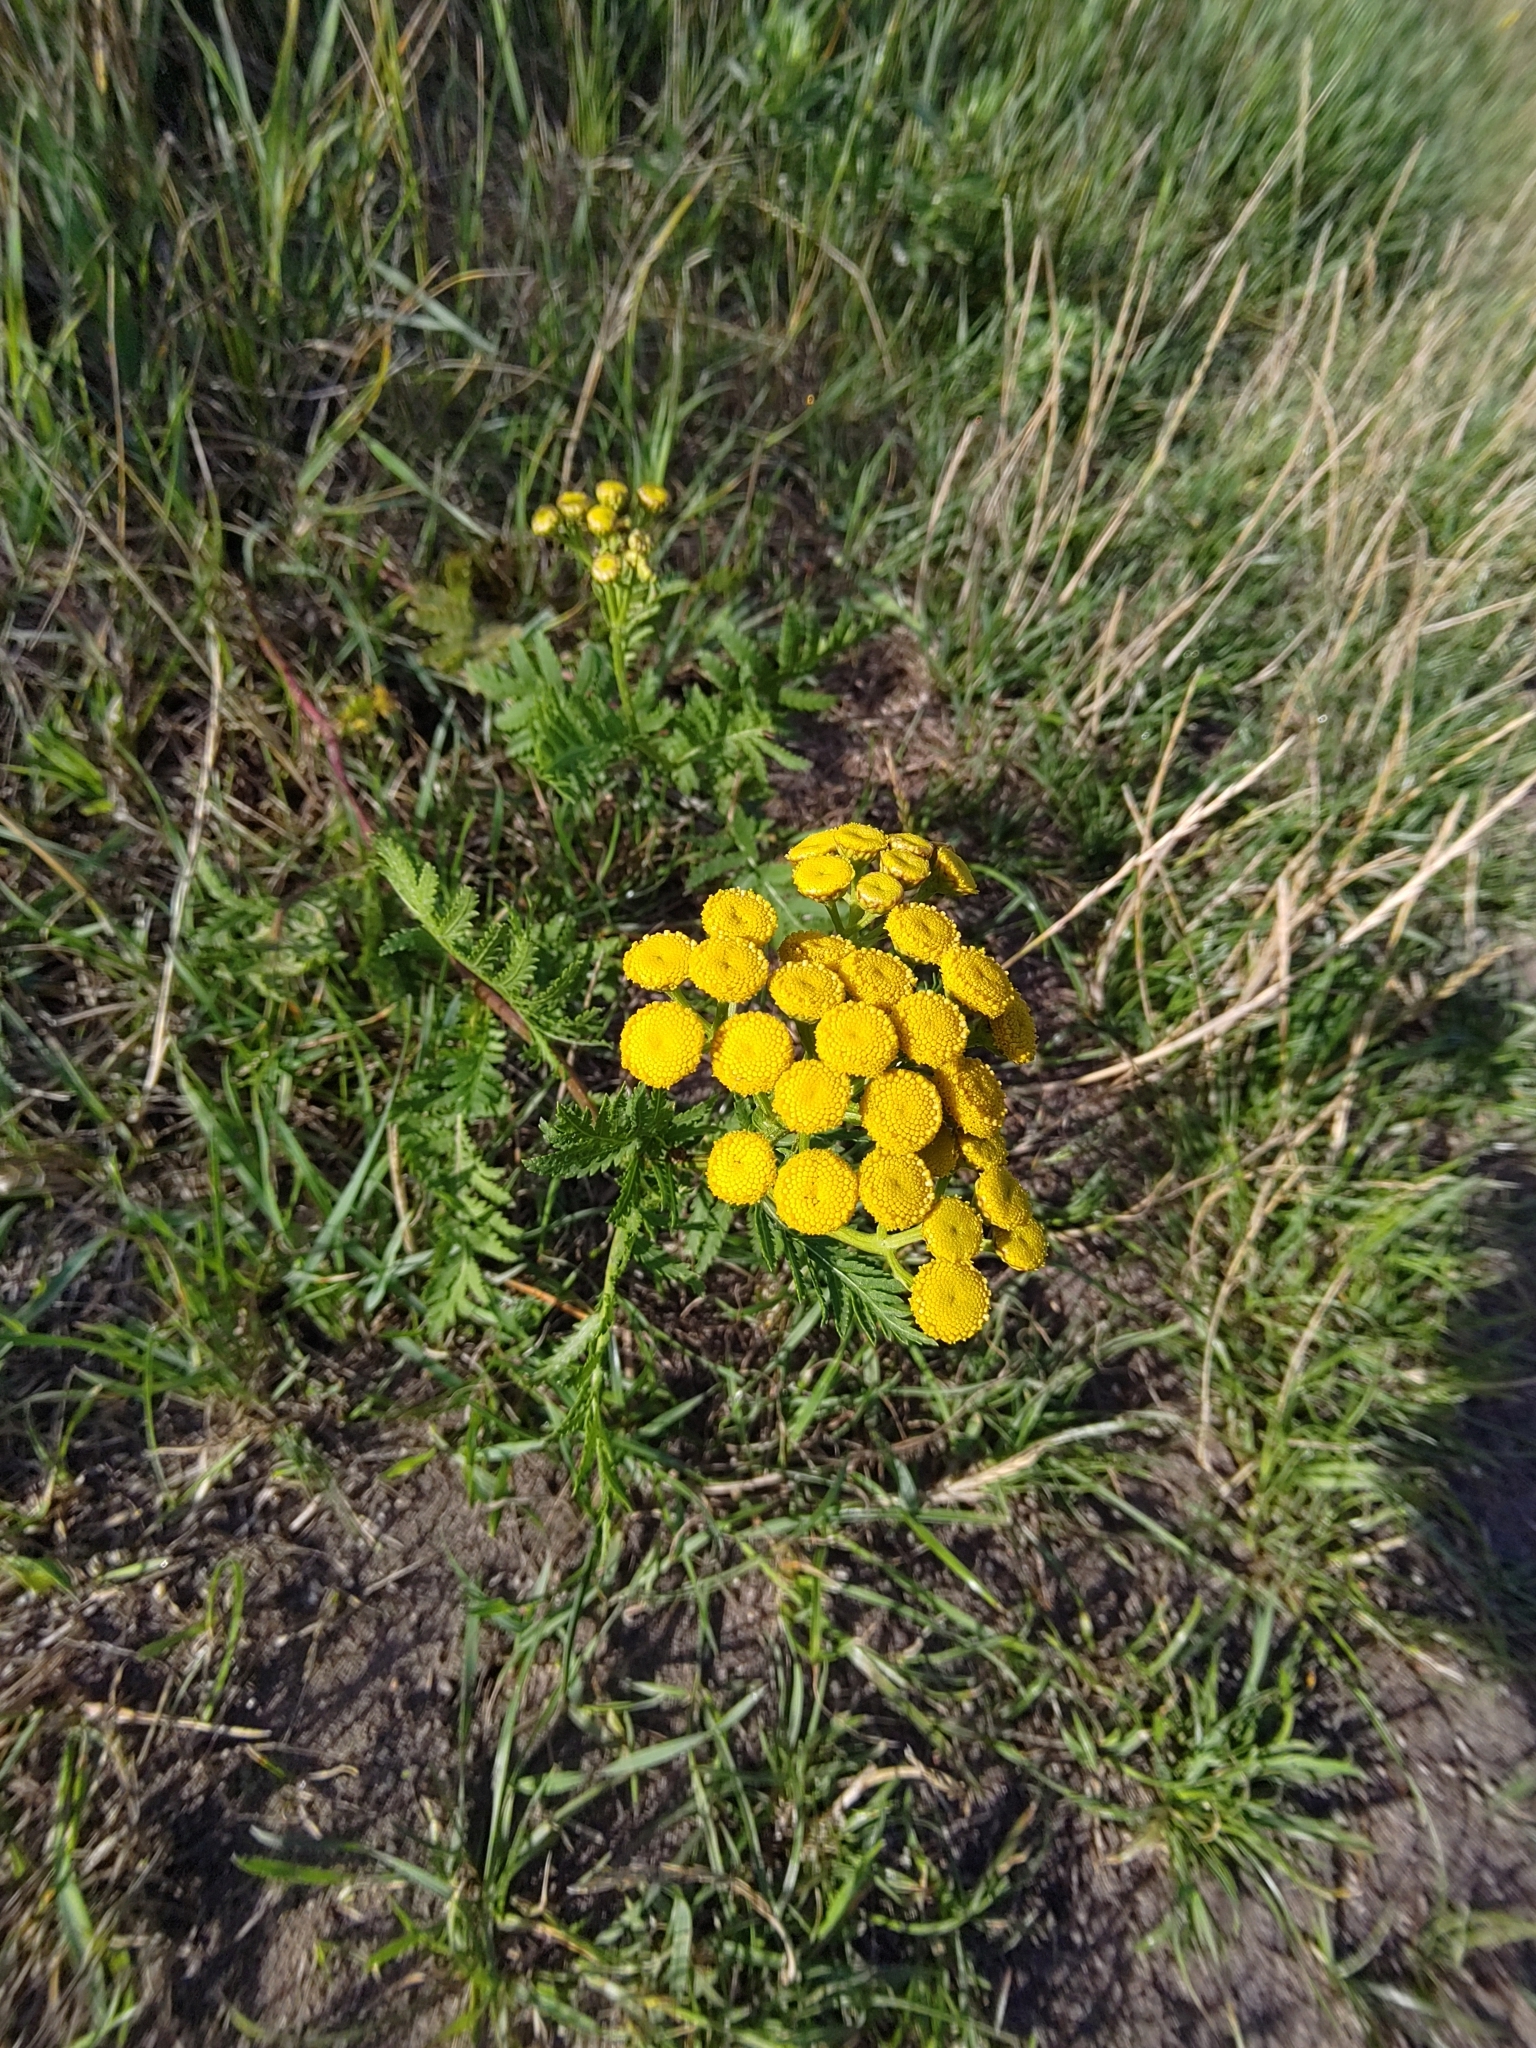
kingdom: Plantae
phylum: Tracheophyta
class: Magnoliopsida
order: Asterales
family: Asteraceae
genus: Tanacetum
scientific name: Tanacetum vulgare
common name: Common tansy
